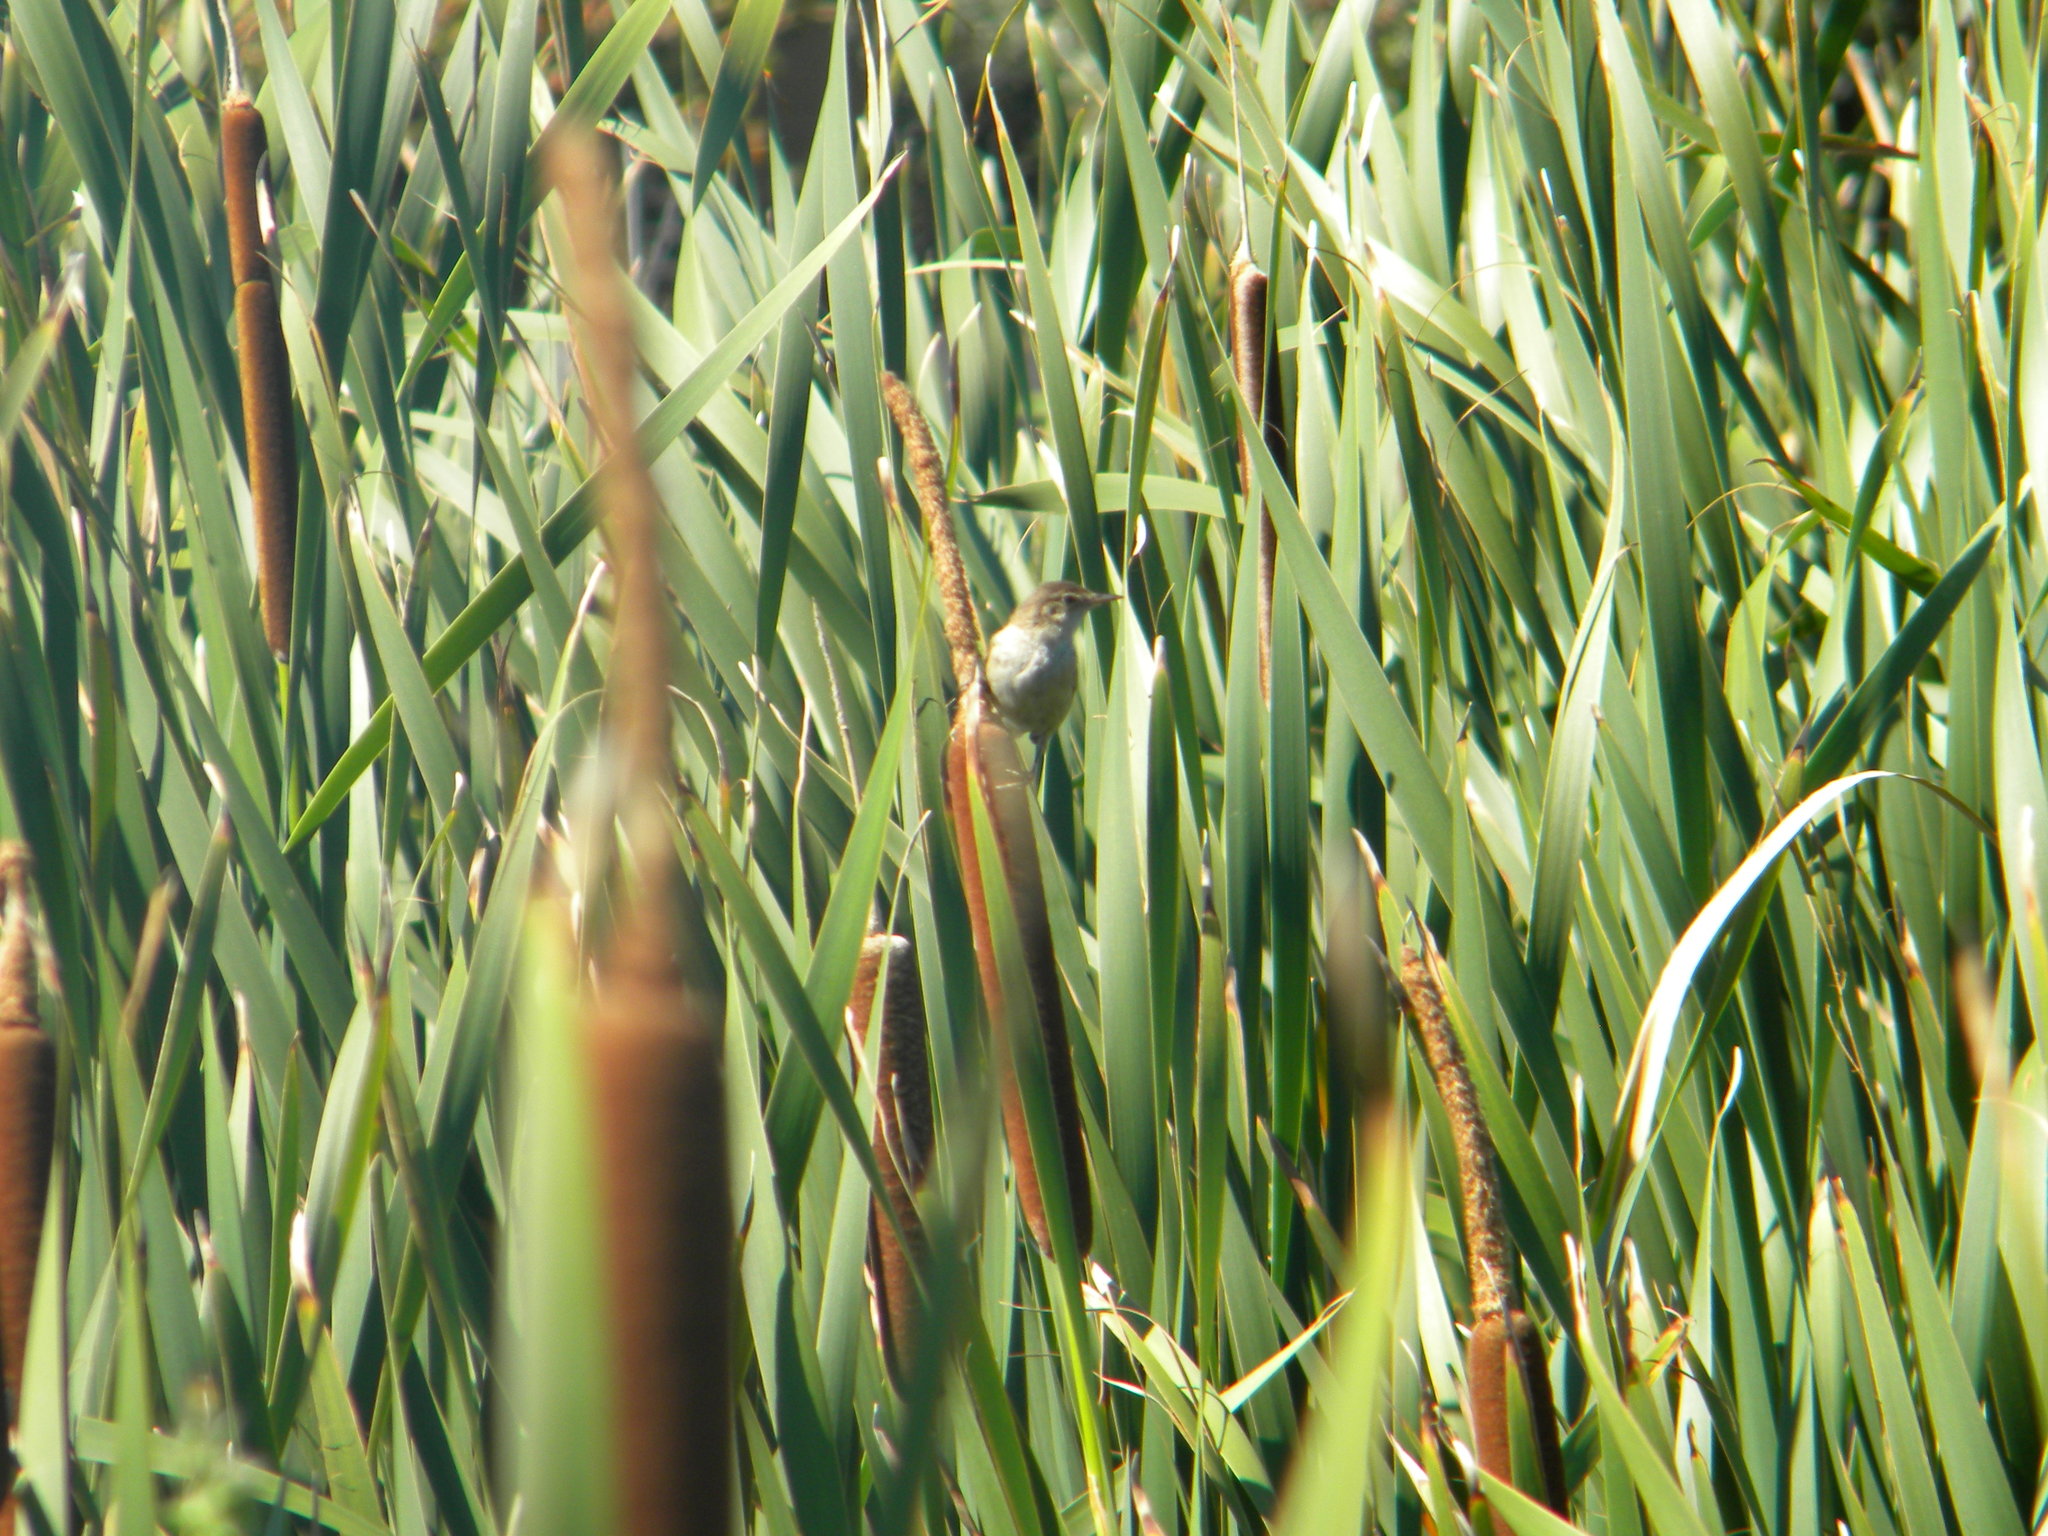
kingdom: Animalia
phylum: Chordata
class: Aves
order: Passeriformes
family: Acrocephalidae
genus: Acrocephalus
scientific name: Acrocephalus gracilirostris
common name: Lesser swamp warbler
